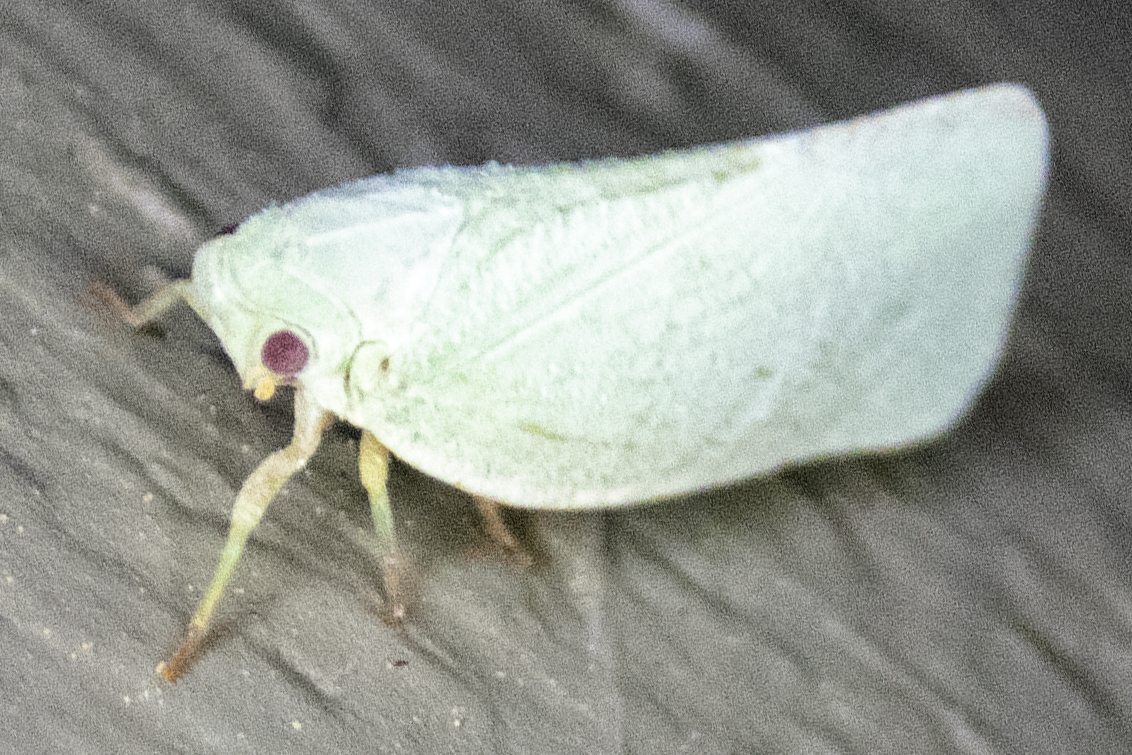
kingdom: Animalia
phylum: Arthropoda
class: Insecta
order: Hemiptera
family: Flatidae
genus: Flatormenis
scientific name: Flatormenis proxima
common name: Northern flatid planthopper
